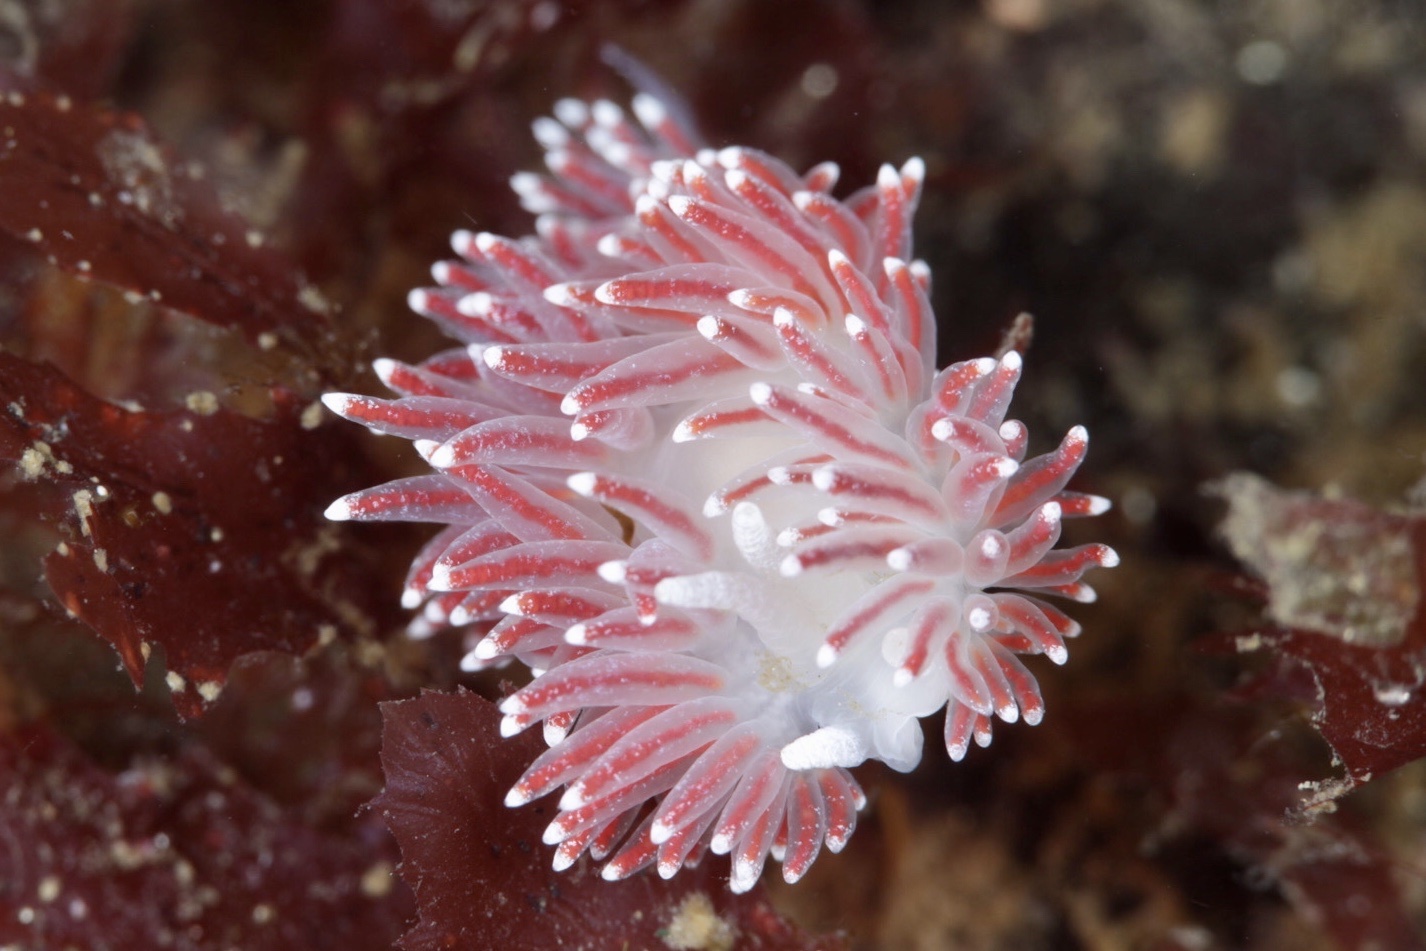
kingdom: Animalia
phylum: Mollusca
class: Gastropoda
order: Nudibranchia
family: Flabellinidae
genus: Carronella
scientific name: Carronella pellucida
